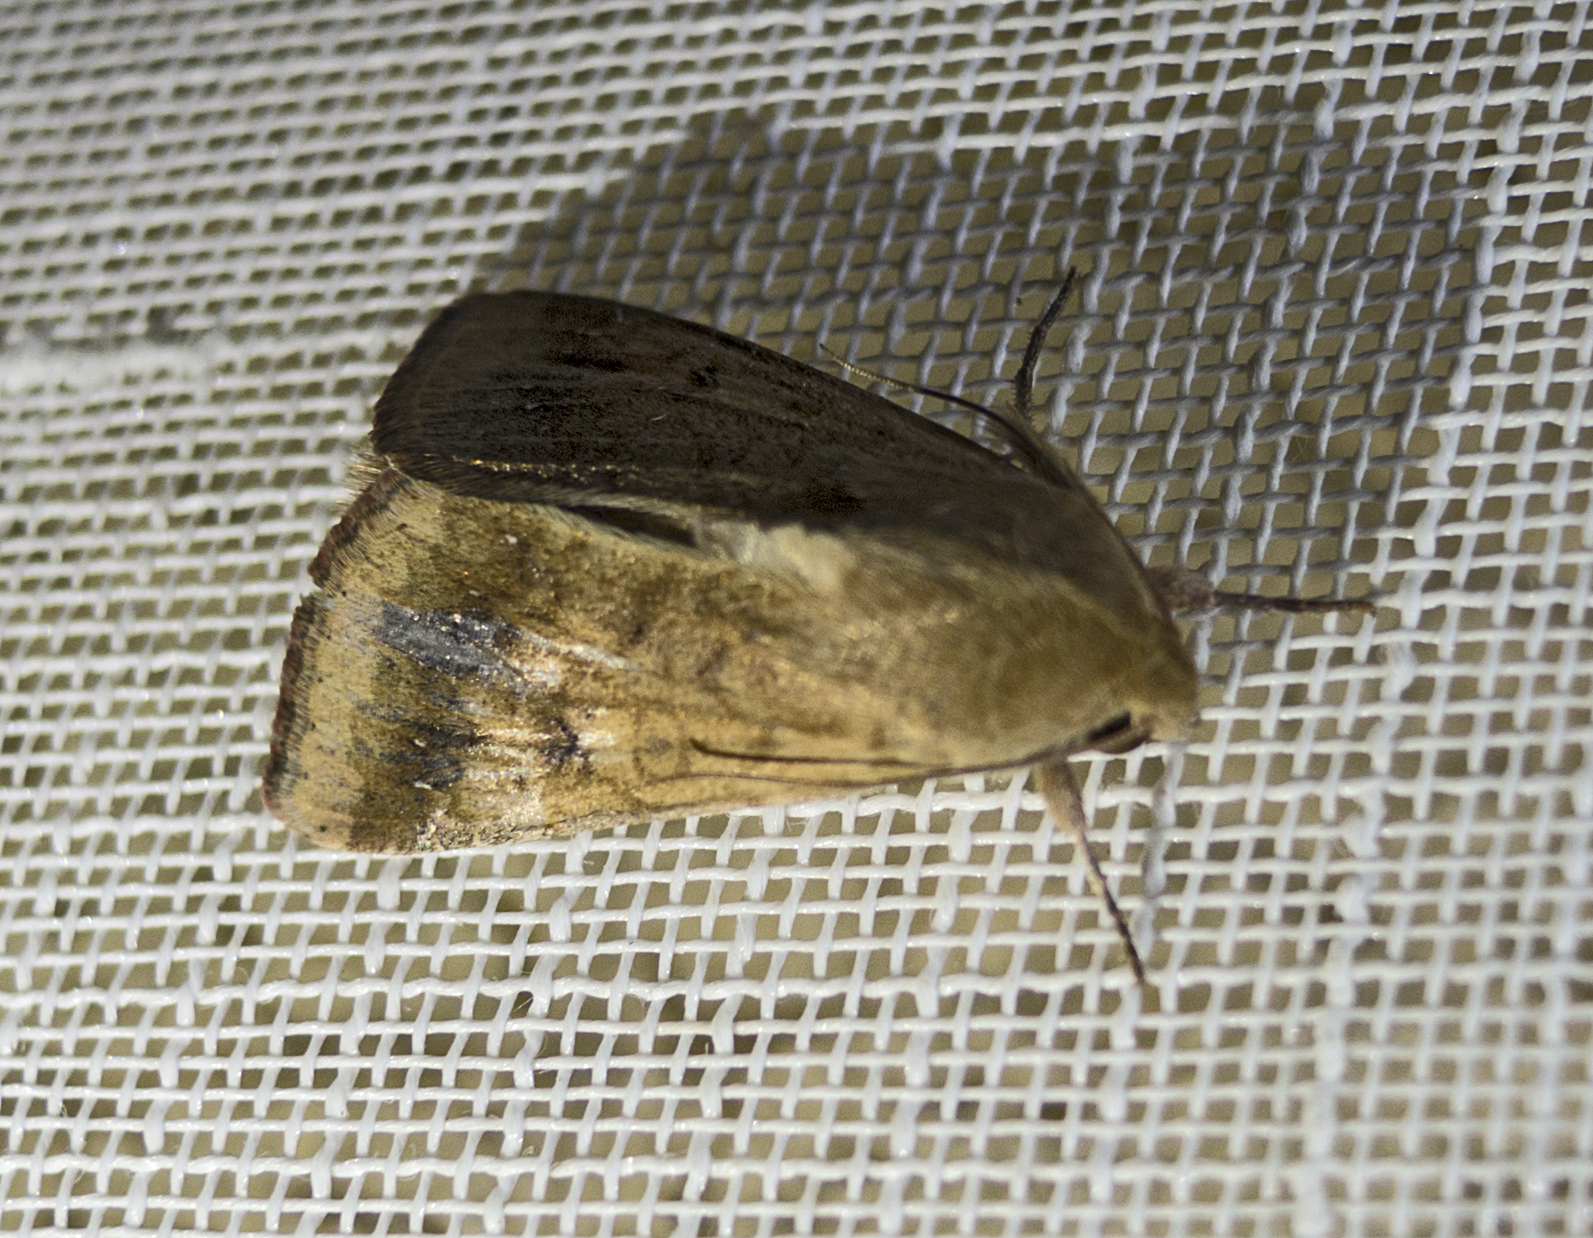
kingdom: Animalia
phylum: Arthropoda
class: Insecta
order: Lepidoptera
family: Noctuidae
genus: Helicoverpa
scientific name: Helicoverpa armigera
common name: Cotton bollworm
